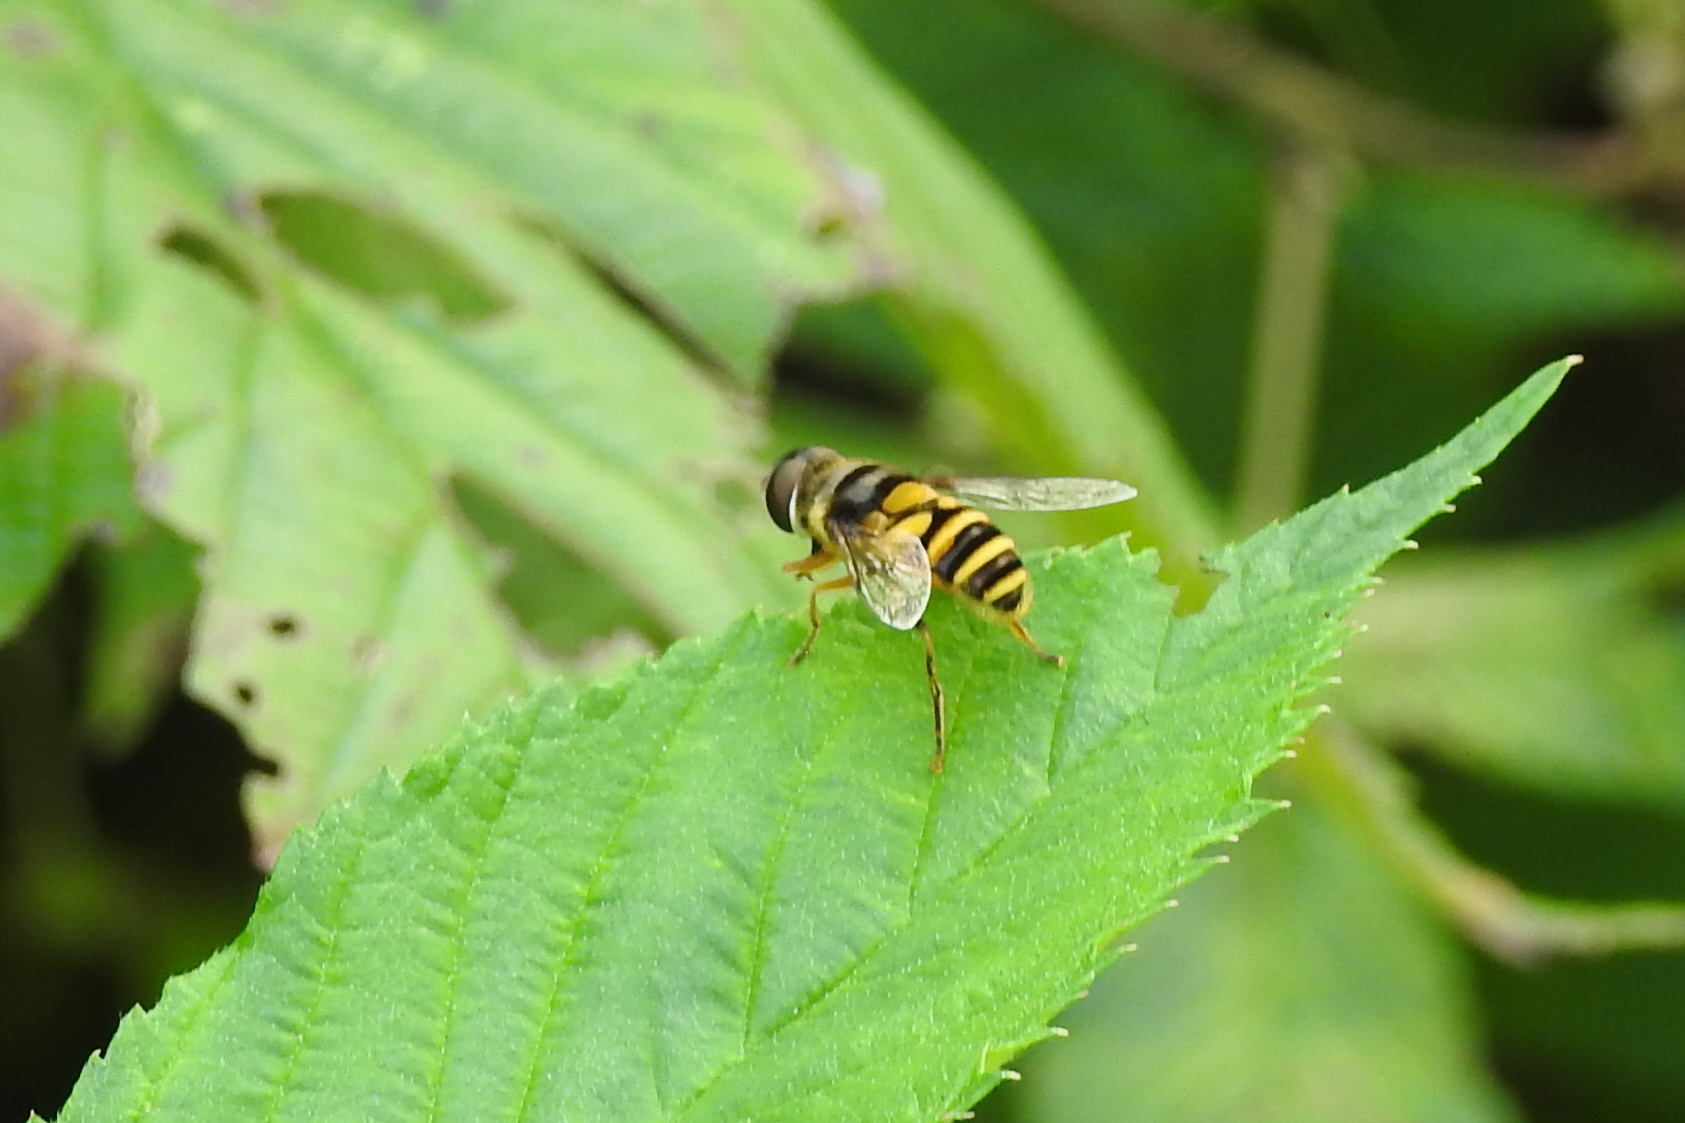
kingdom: Animalia
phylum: Arthropoda
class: Insecta
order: Diptera
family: Syrphidae
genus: Eristalis
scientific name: Eristalis transversa
